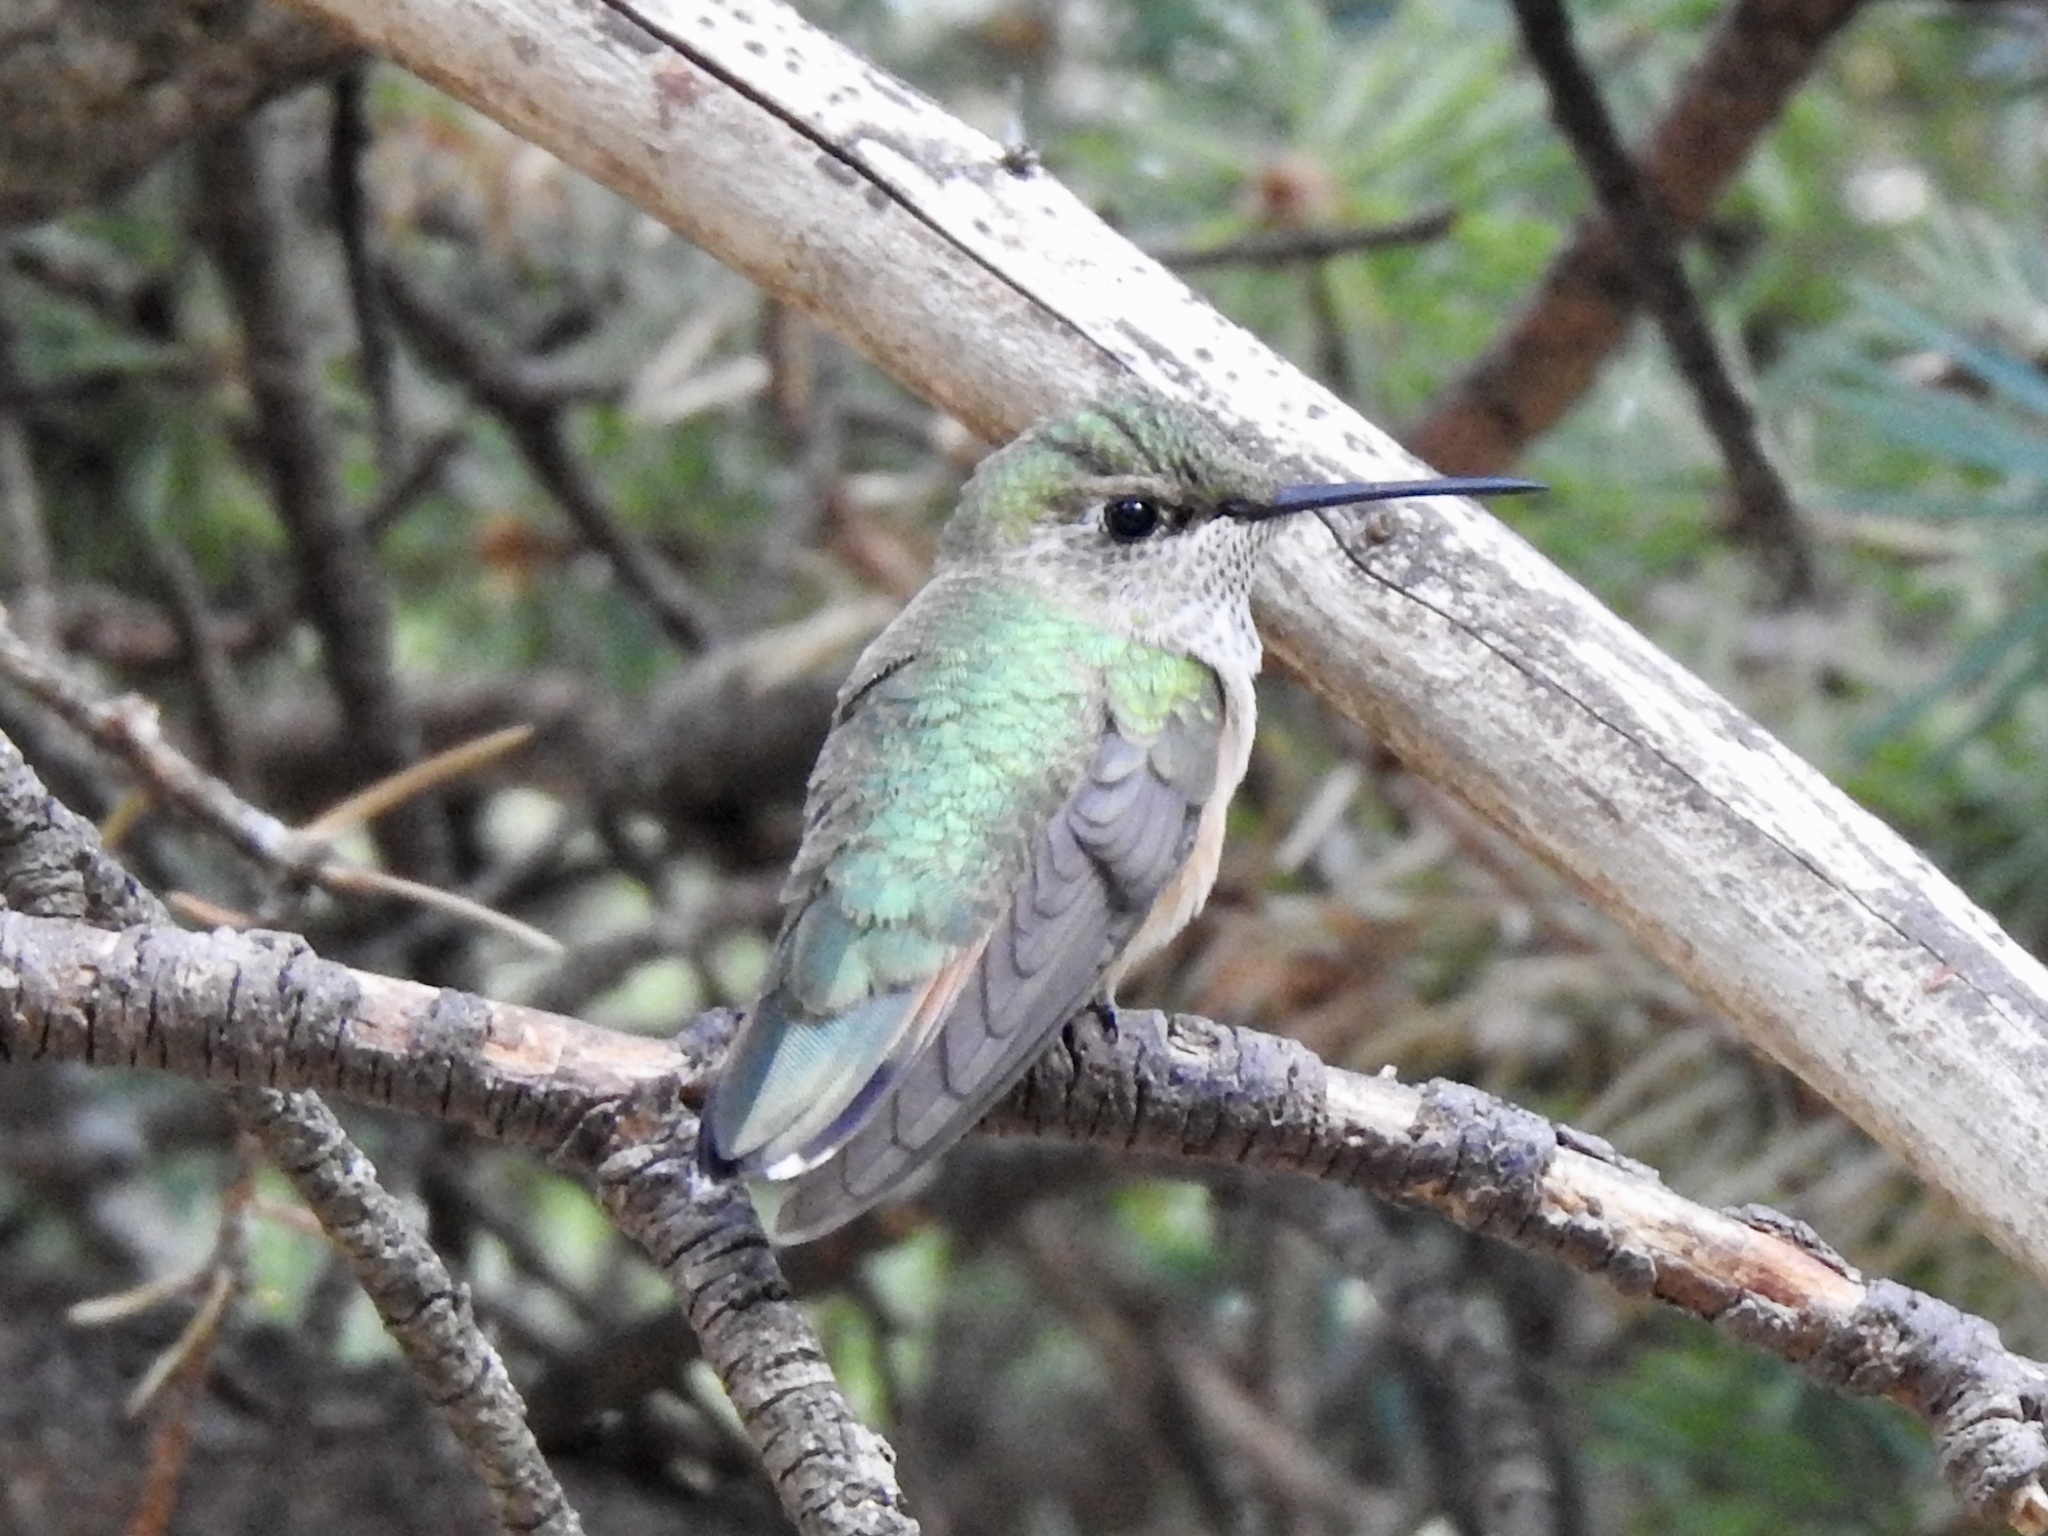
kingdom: Animalia
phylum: Chordata
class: Aves
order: Apodiformes
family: Trochilidae
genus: Selasphorus
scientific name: Selasphorus platycercus
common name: Broad-tailed hummingbird
